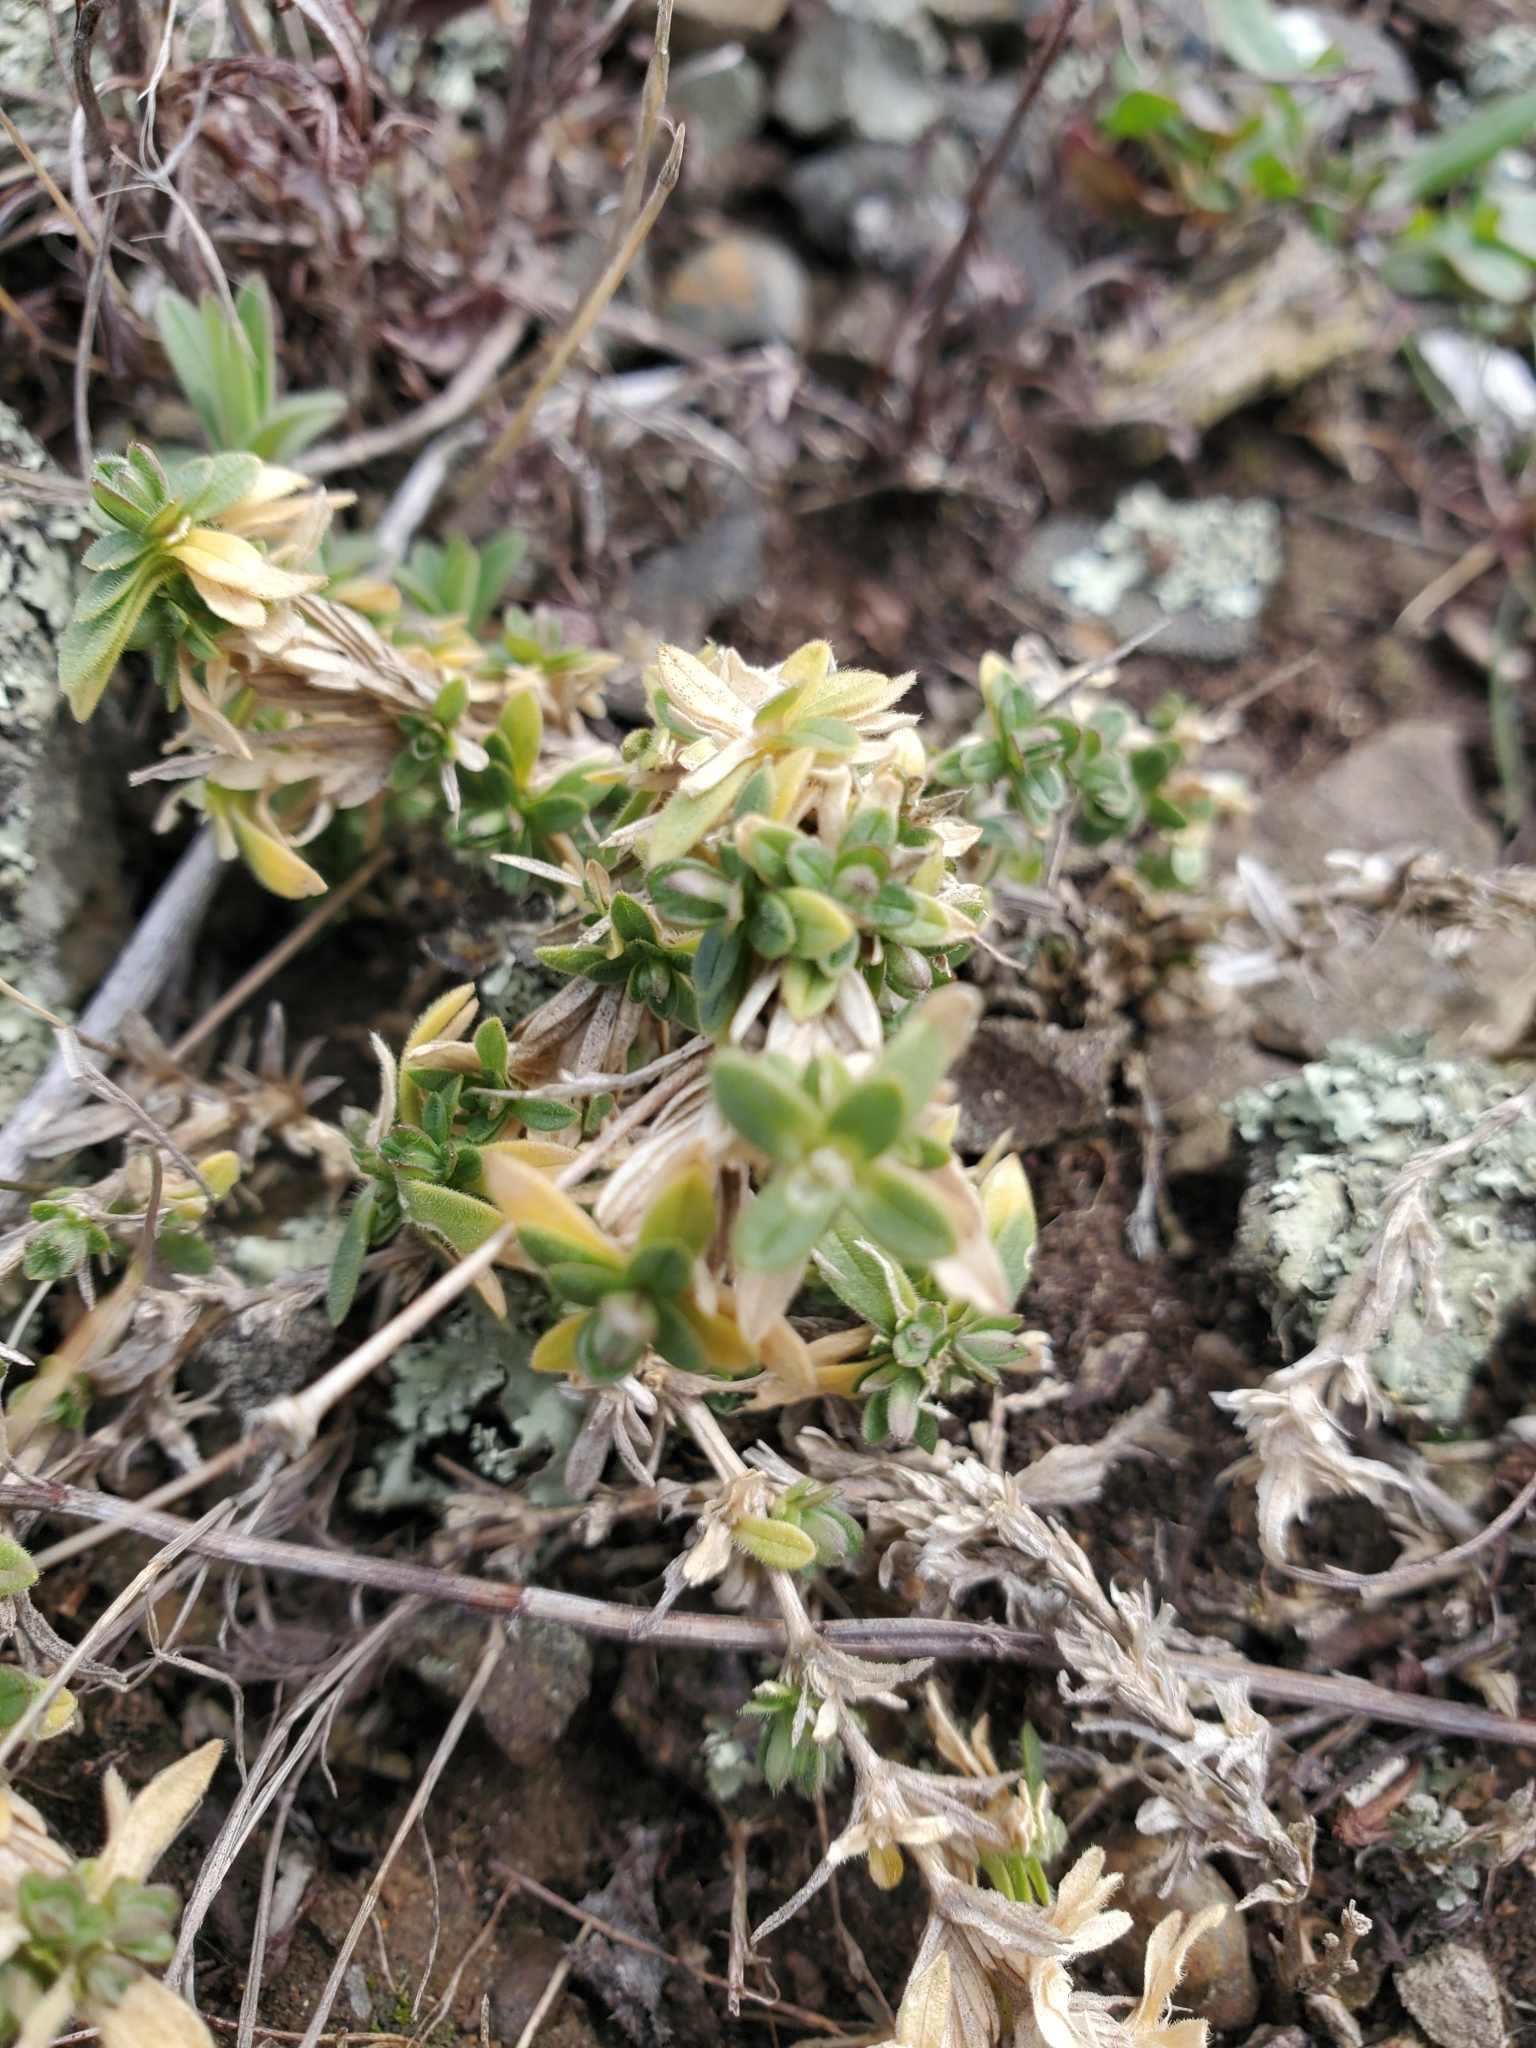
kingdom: Plantae
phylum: Tracheophyta
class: Magnoliopsida
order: Caryophyllales
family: Caryophyllaceae
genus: Cerastium
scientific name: Cerastium arvense
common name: Field mouse-ear
